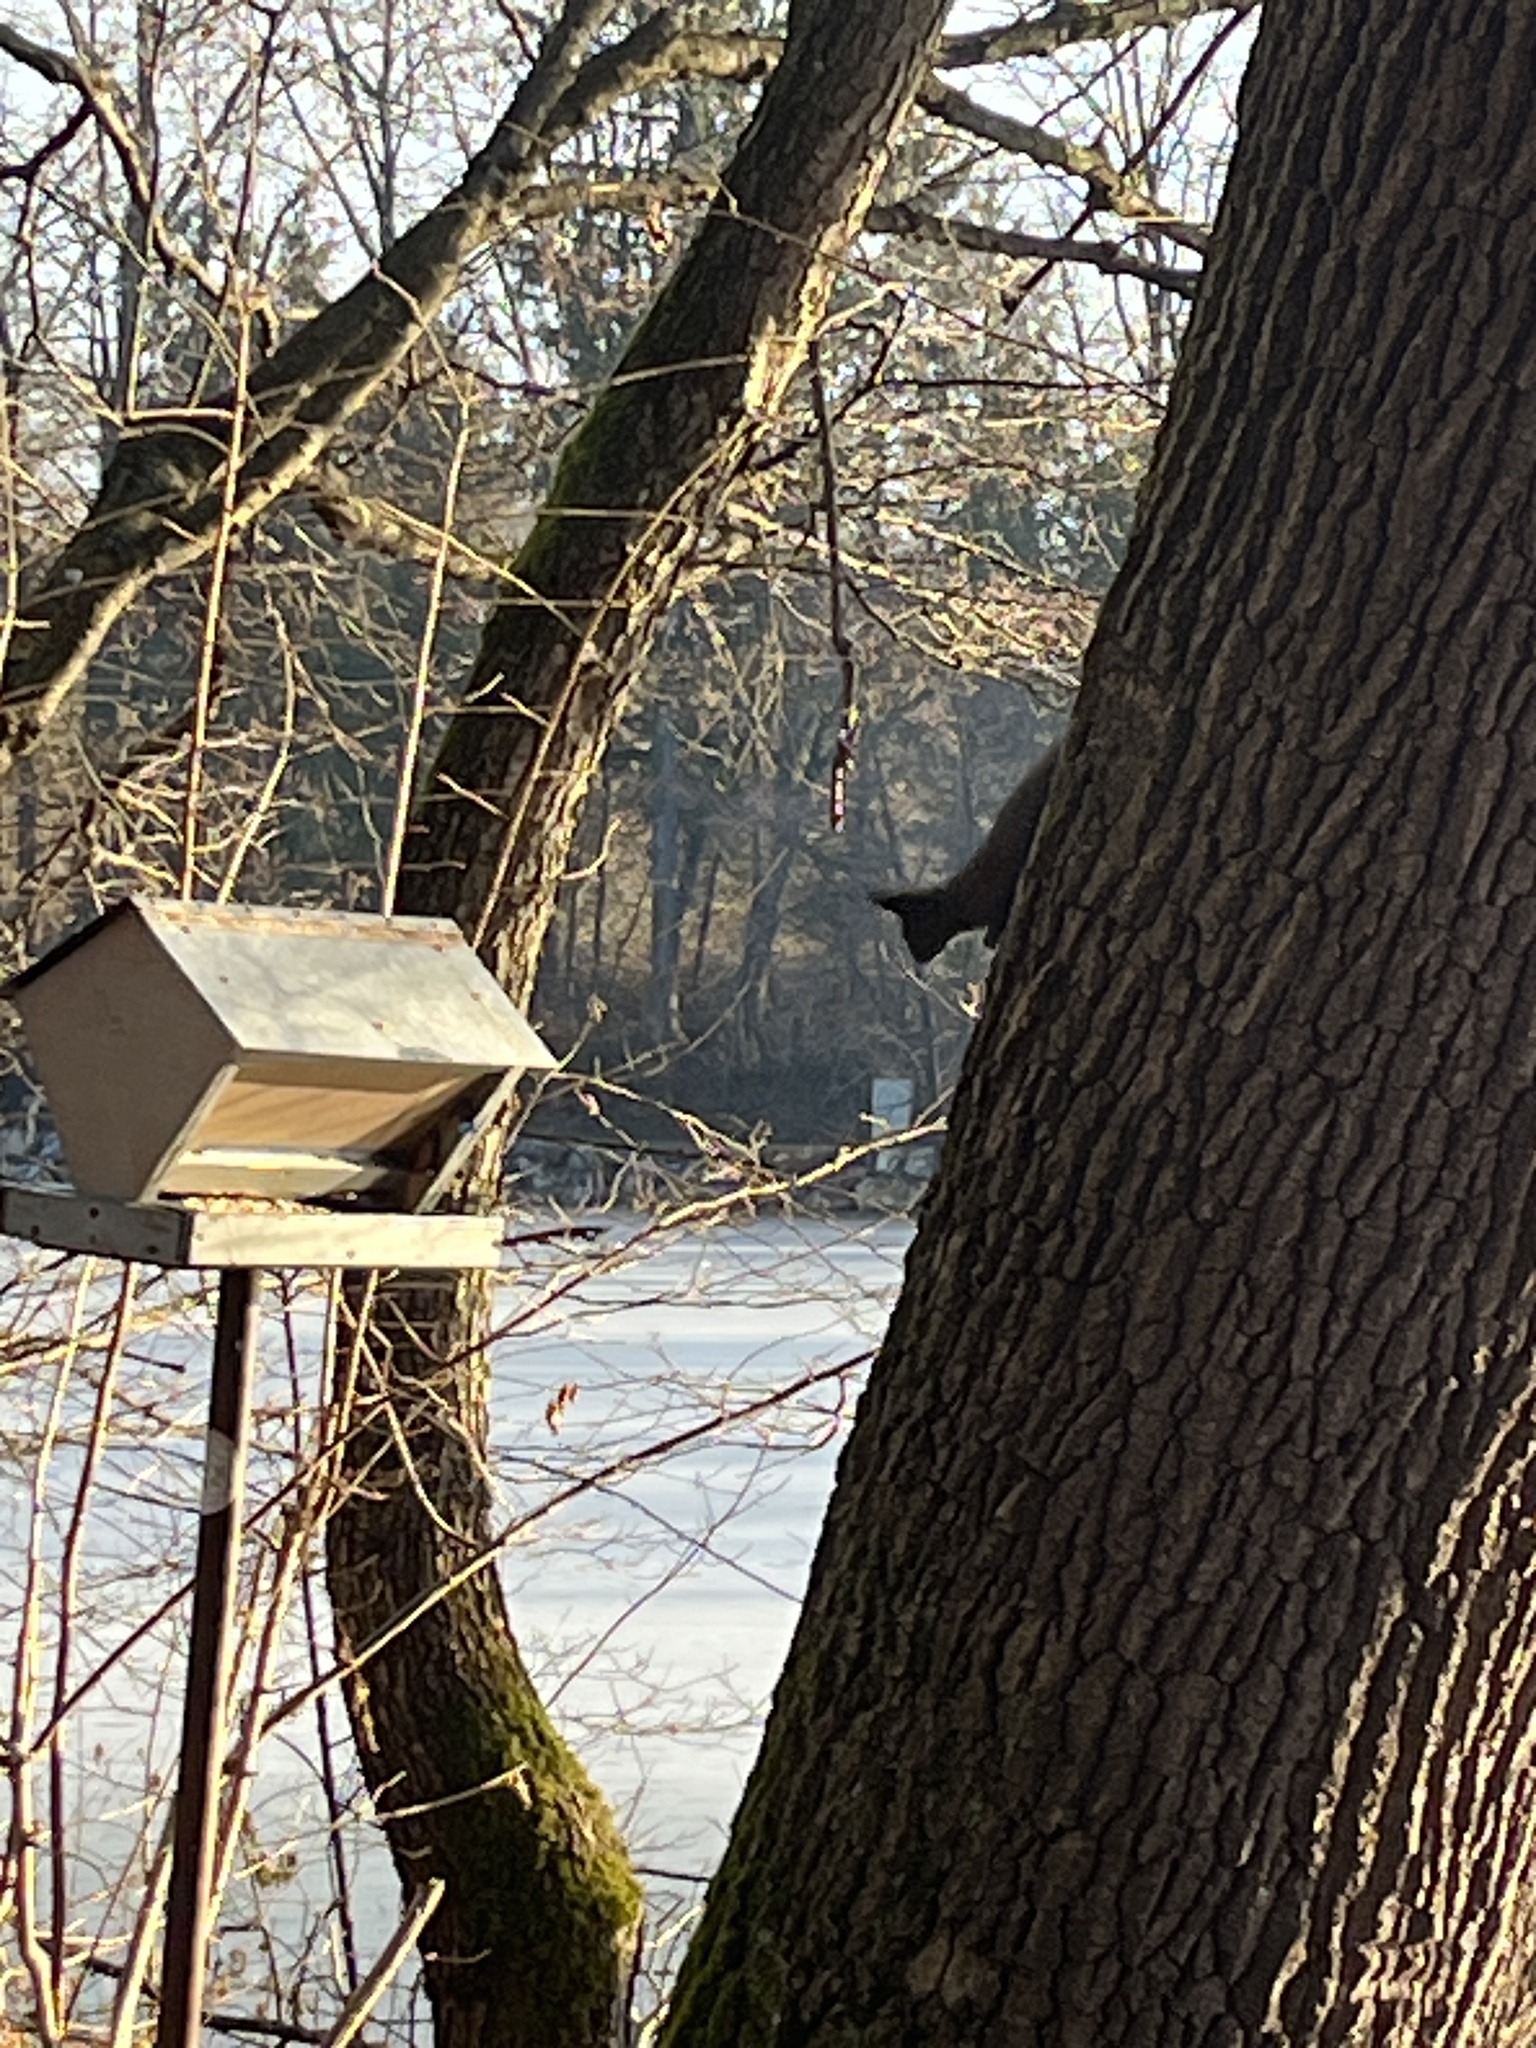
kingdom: Animalia
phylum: Chordata
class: Mammalia
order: Rodentia
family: Sciuridae
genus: Sciurus
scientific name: Sciurus vulgaris
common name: Eurasian red squirrel
